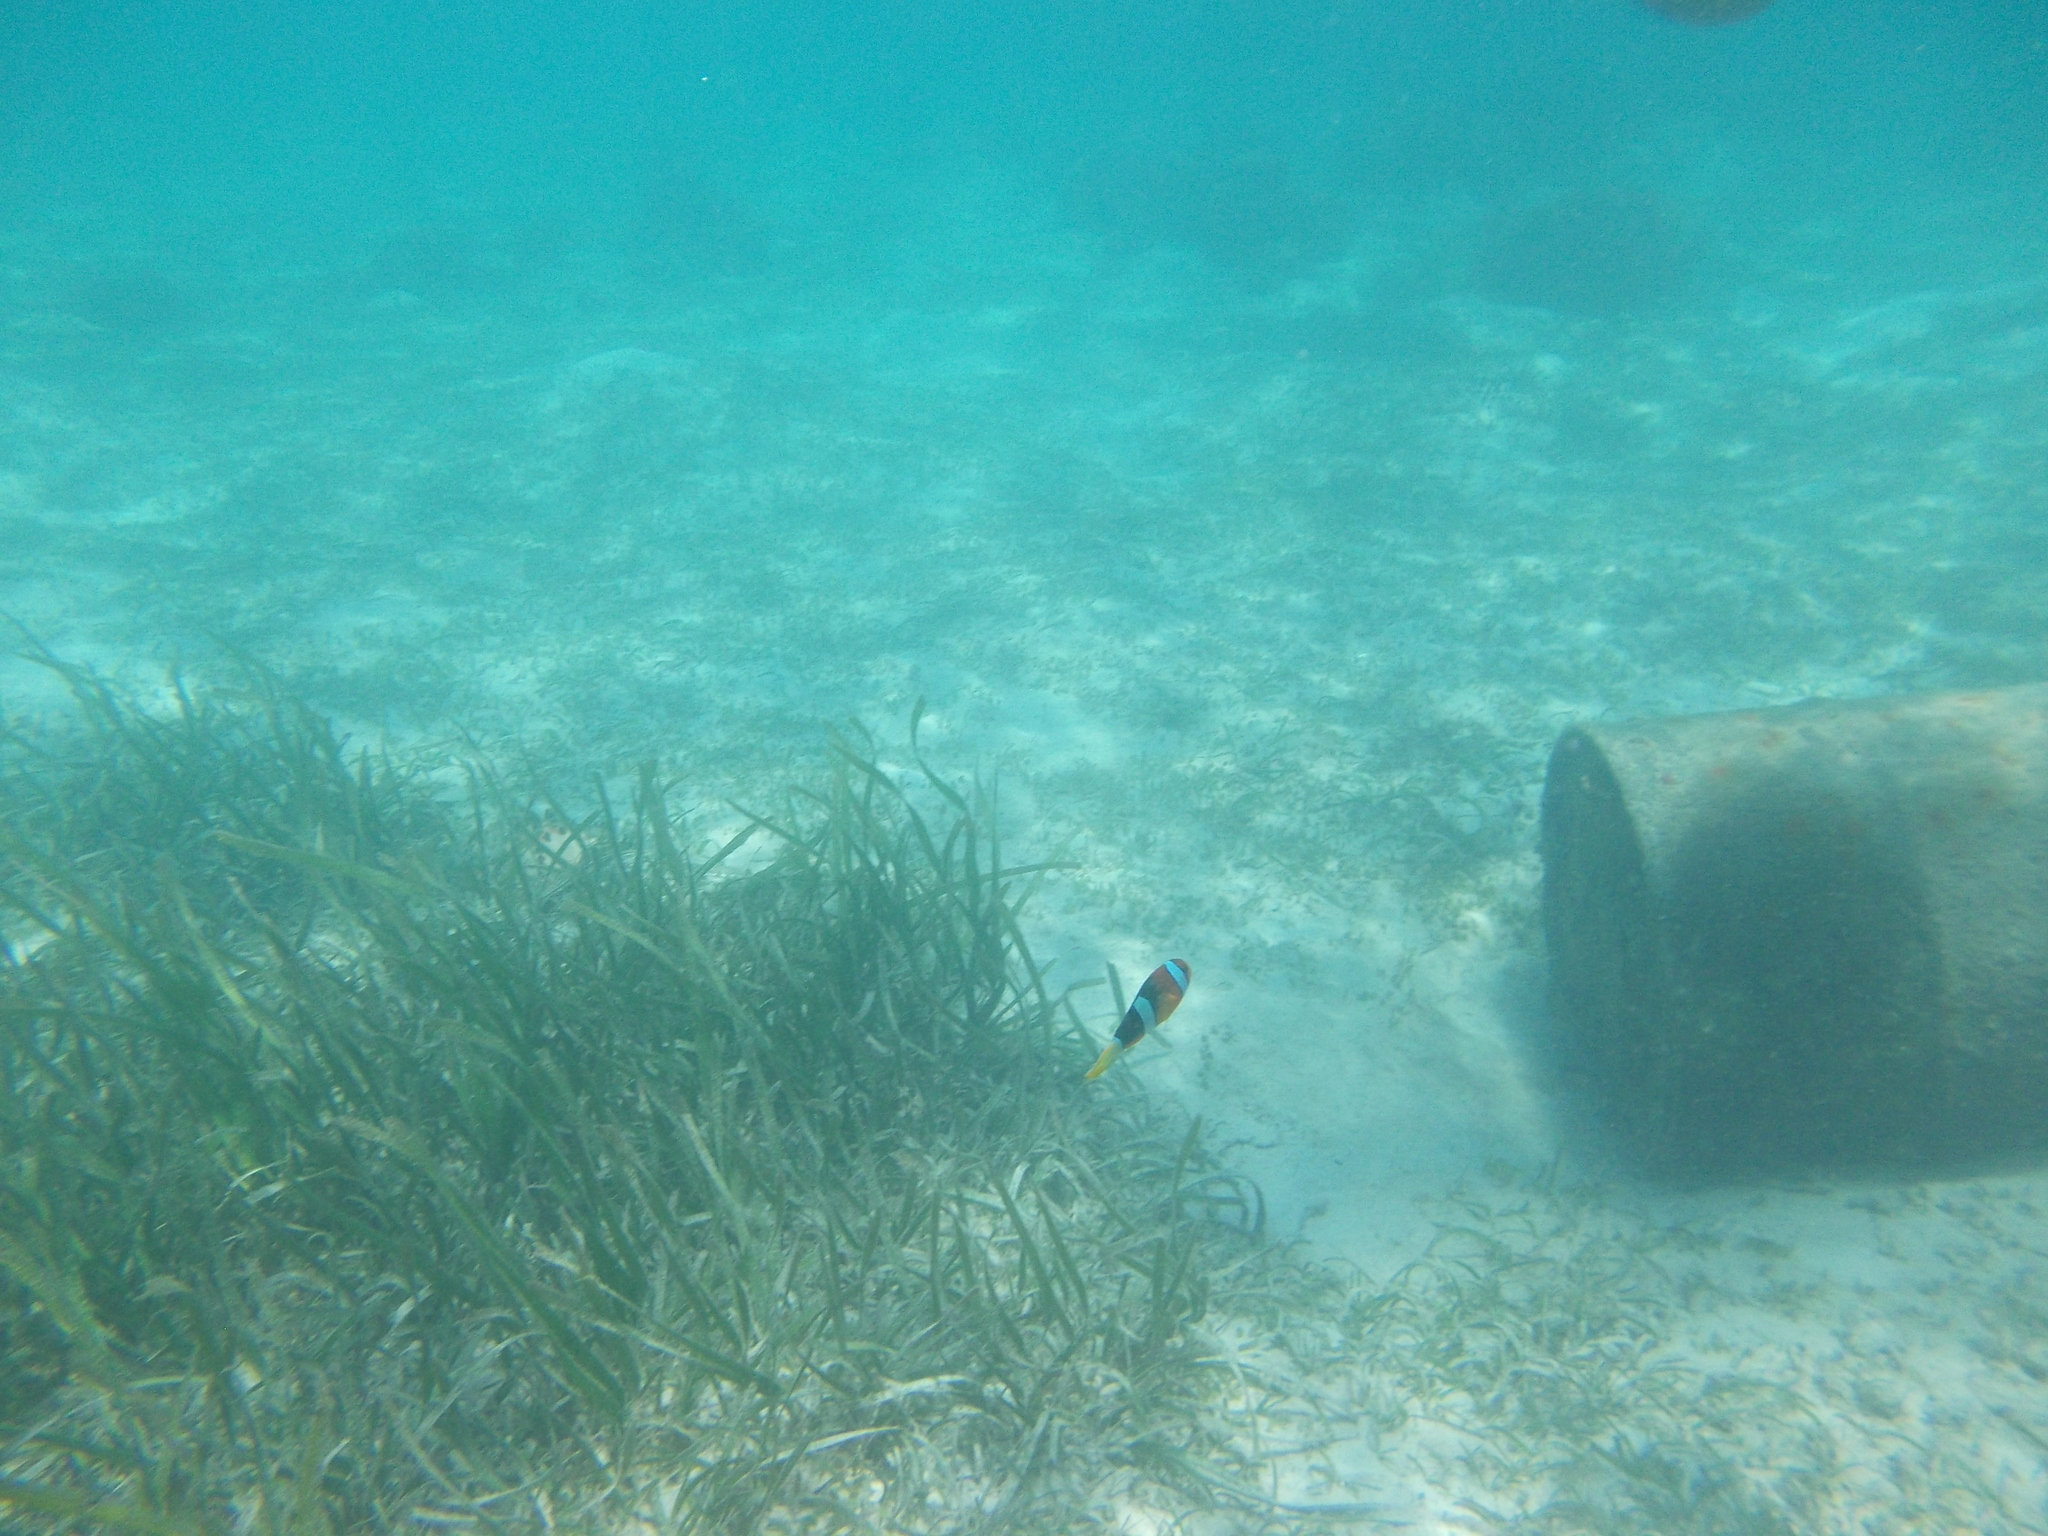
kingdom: Animalia
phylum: Chordata
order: Perciformes
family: Pomacentridae
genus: Amphiprion
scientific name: Amphiprion clarkii
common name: Clark's anemonefish
